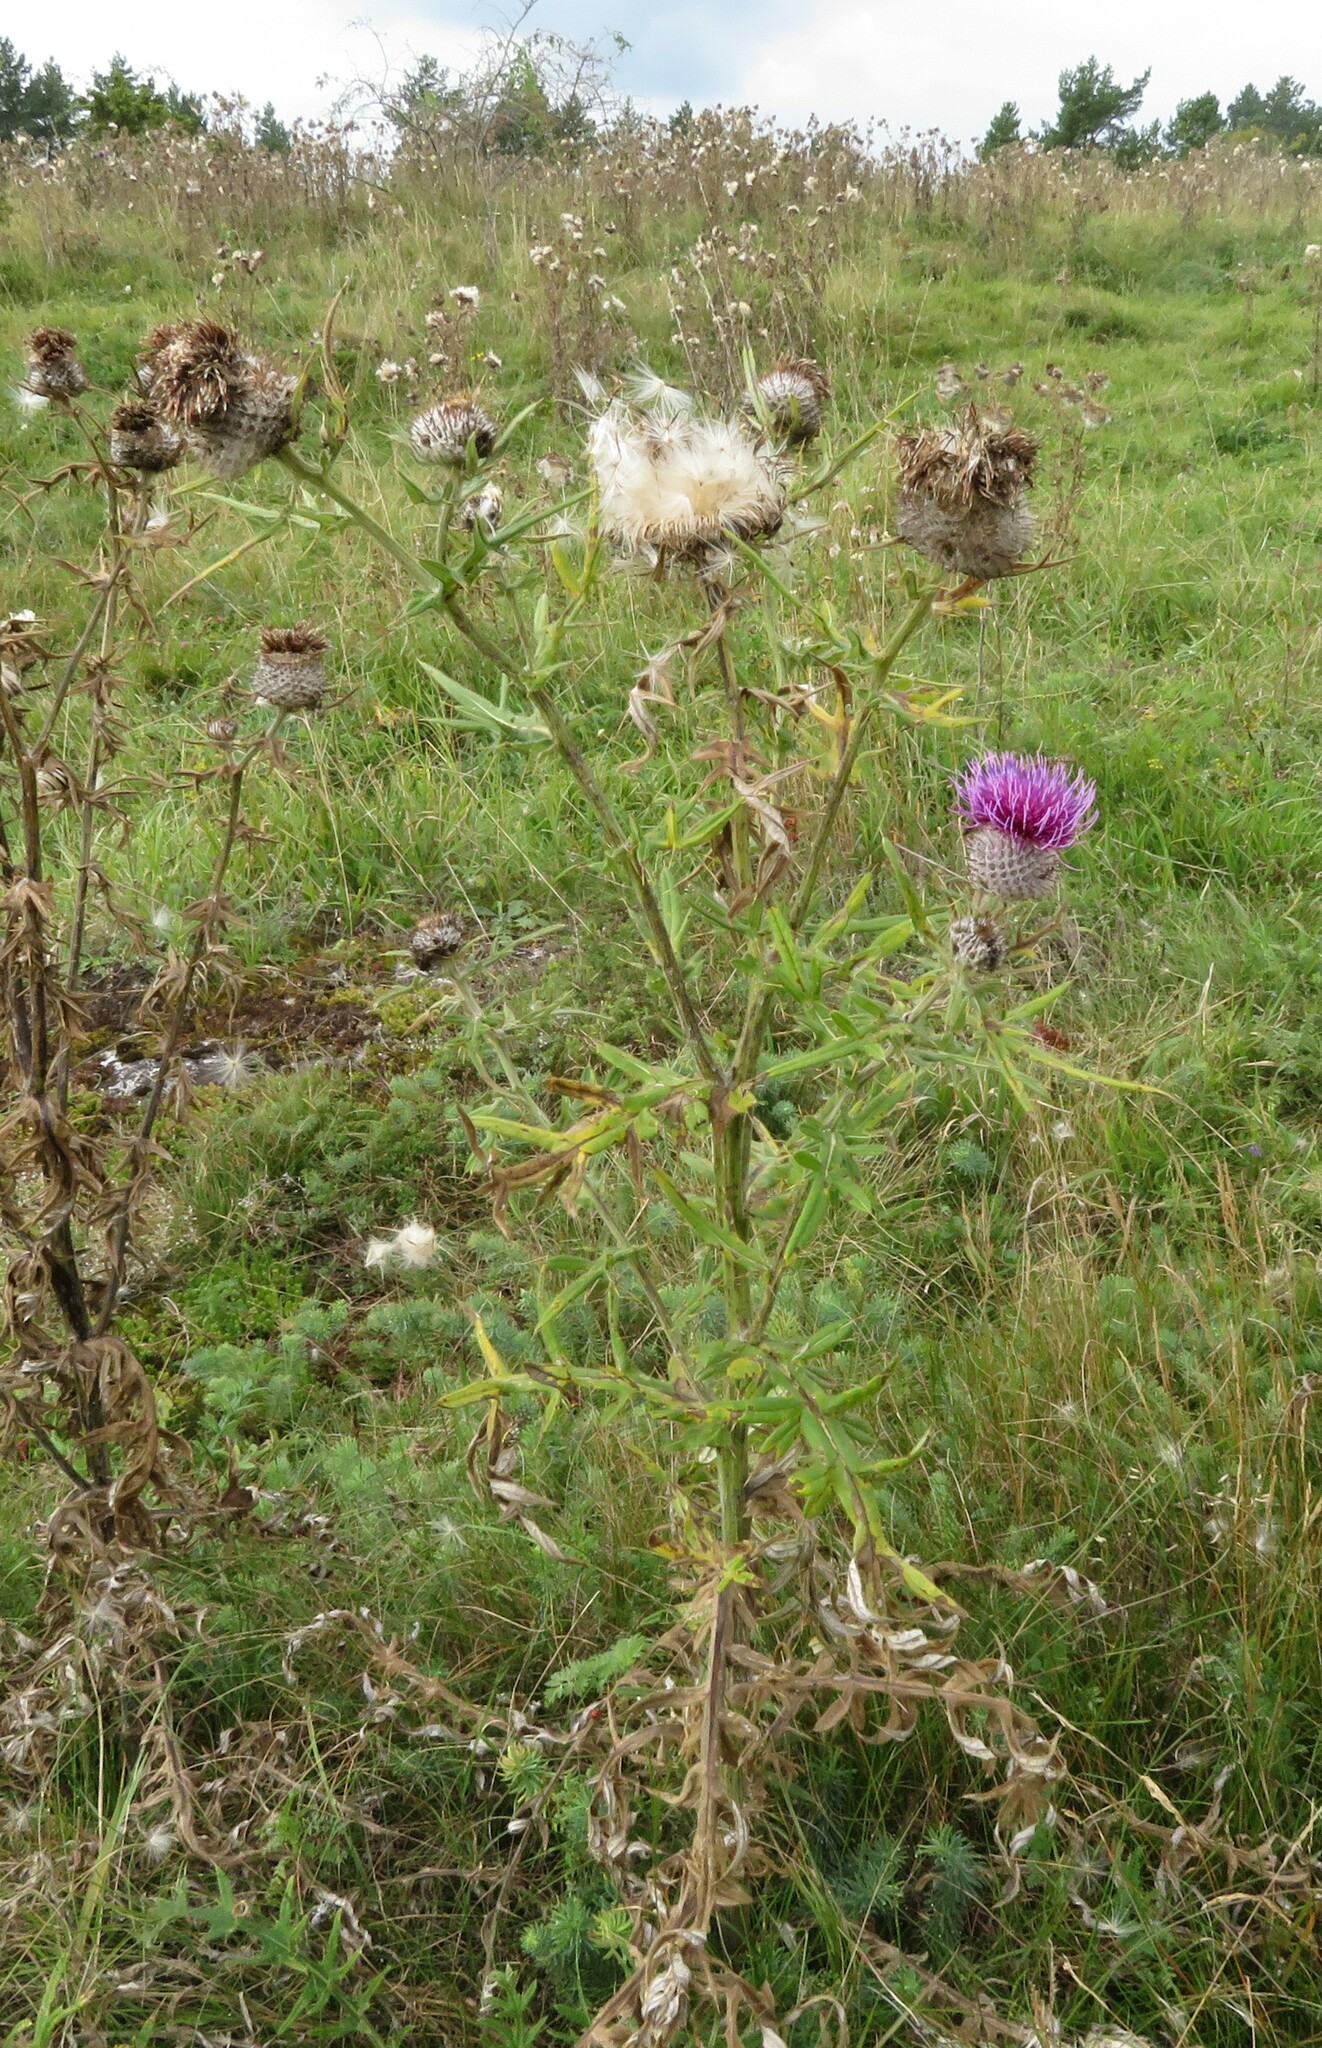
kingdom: Plantae
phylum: Tracheophyta
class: Magnoliopsida
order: Asterales
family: Asteraceae
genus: Cirsium
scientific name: Cirsium vulgare
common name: Bull thistle
